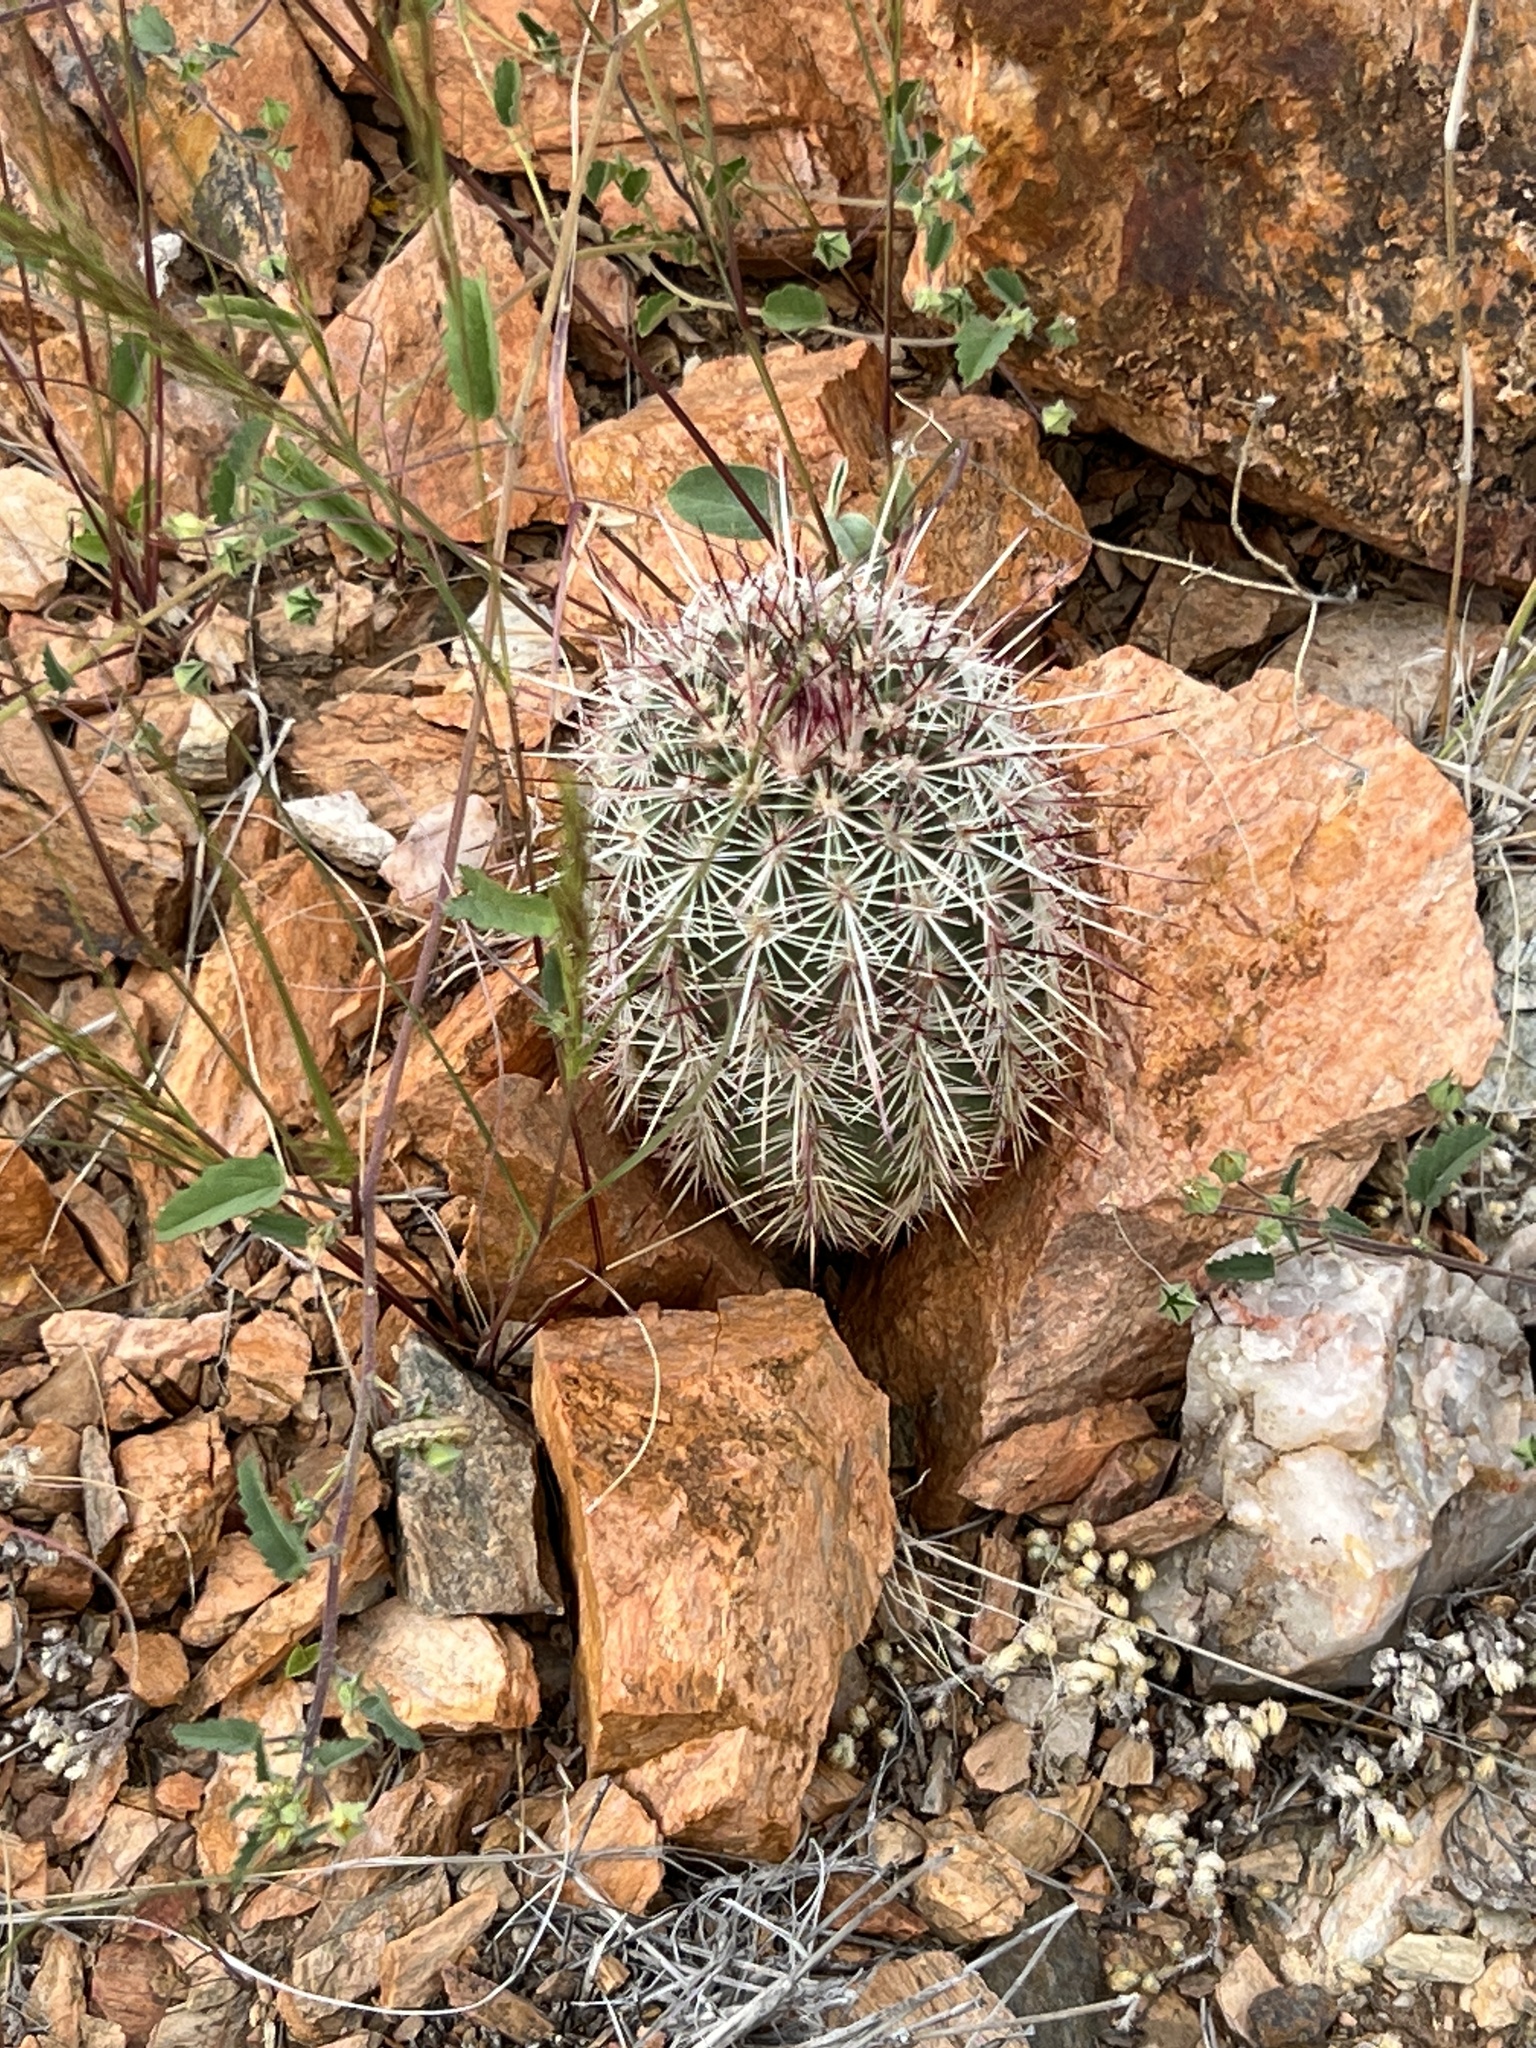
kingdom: Plantae
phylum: Tracheophyta
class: Magnoliopsida
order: Caryophyllales
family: Cactaceae
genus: Echinocereus
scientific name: Echinocereus viridiflorus
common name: Nylon hedgehog cactus
